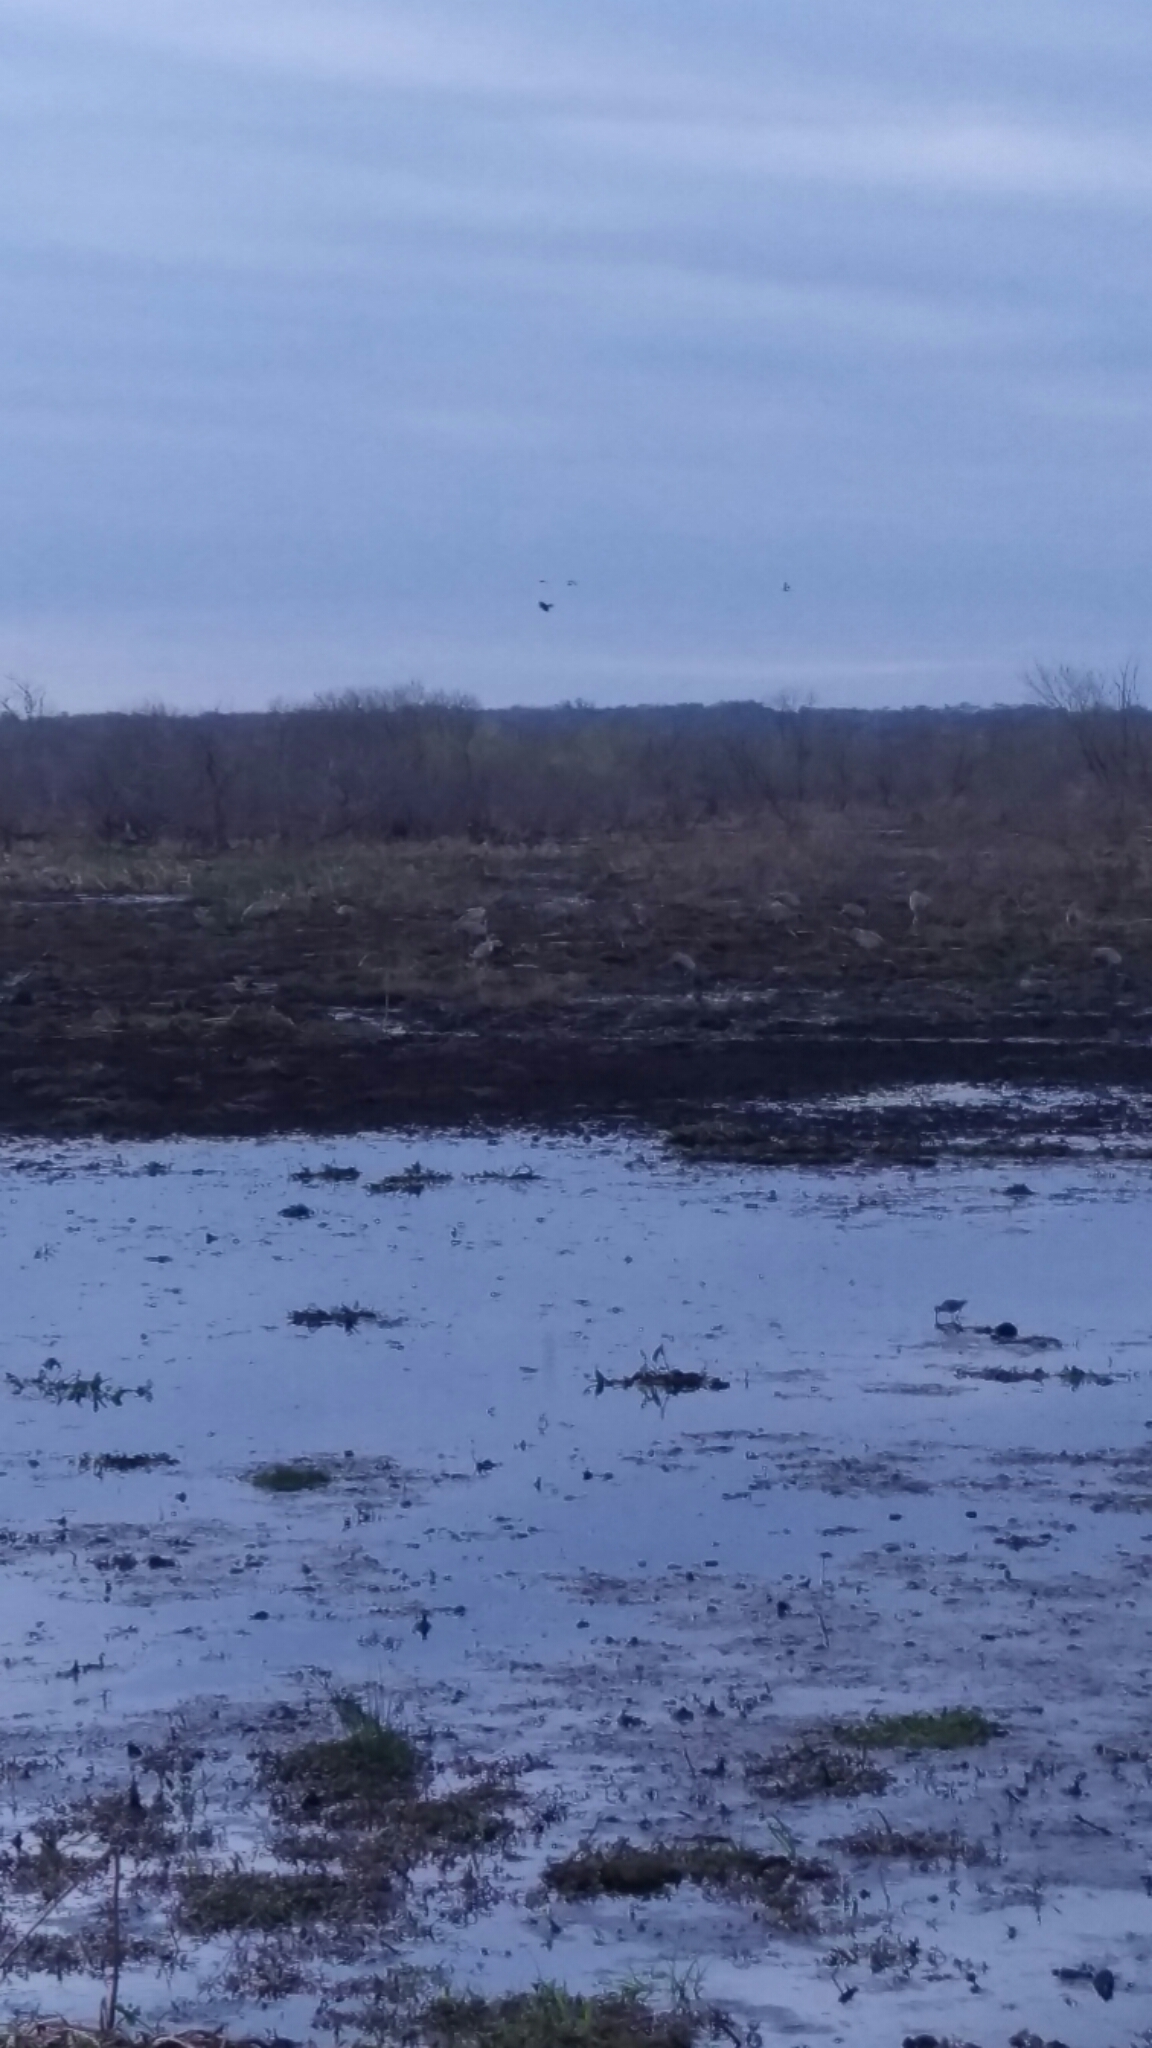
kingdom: Animalia
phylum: Chordata
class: Aves
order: Gruiformes
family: Gruidae
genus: Grus
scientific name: Grus canadensis
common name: Sandhill crane
